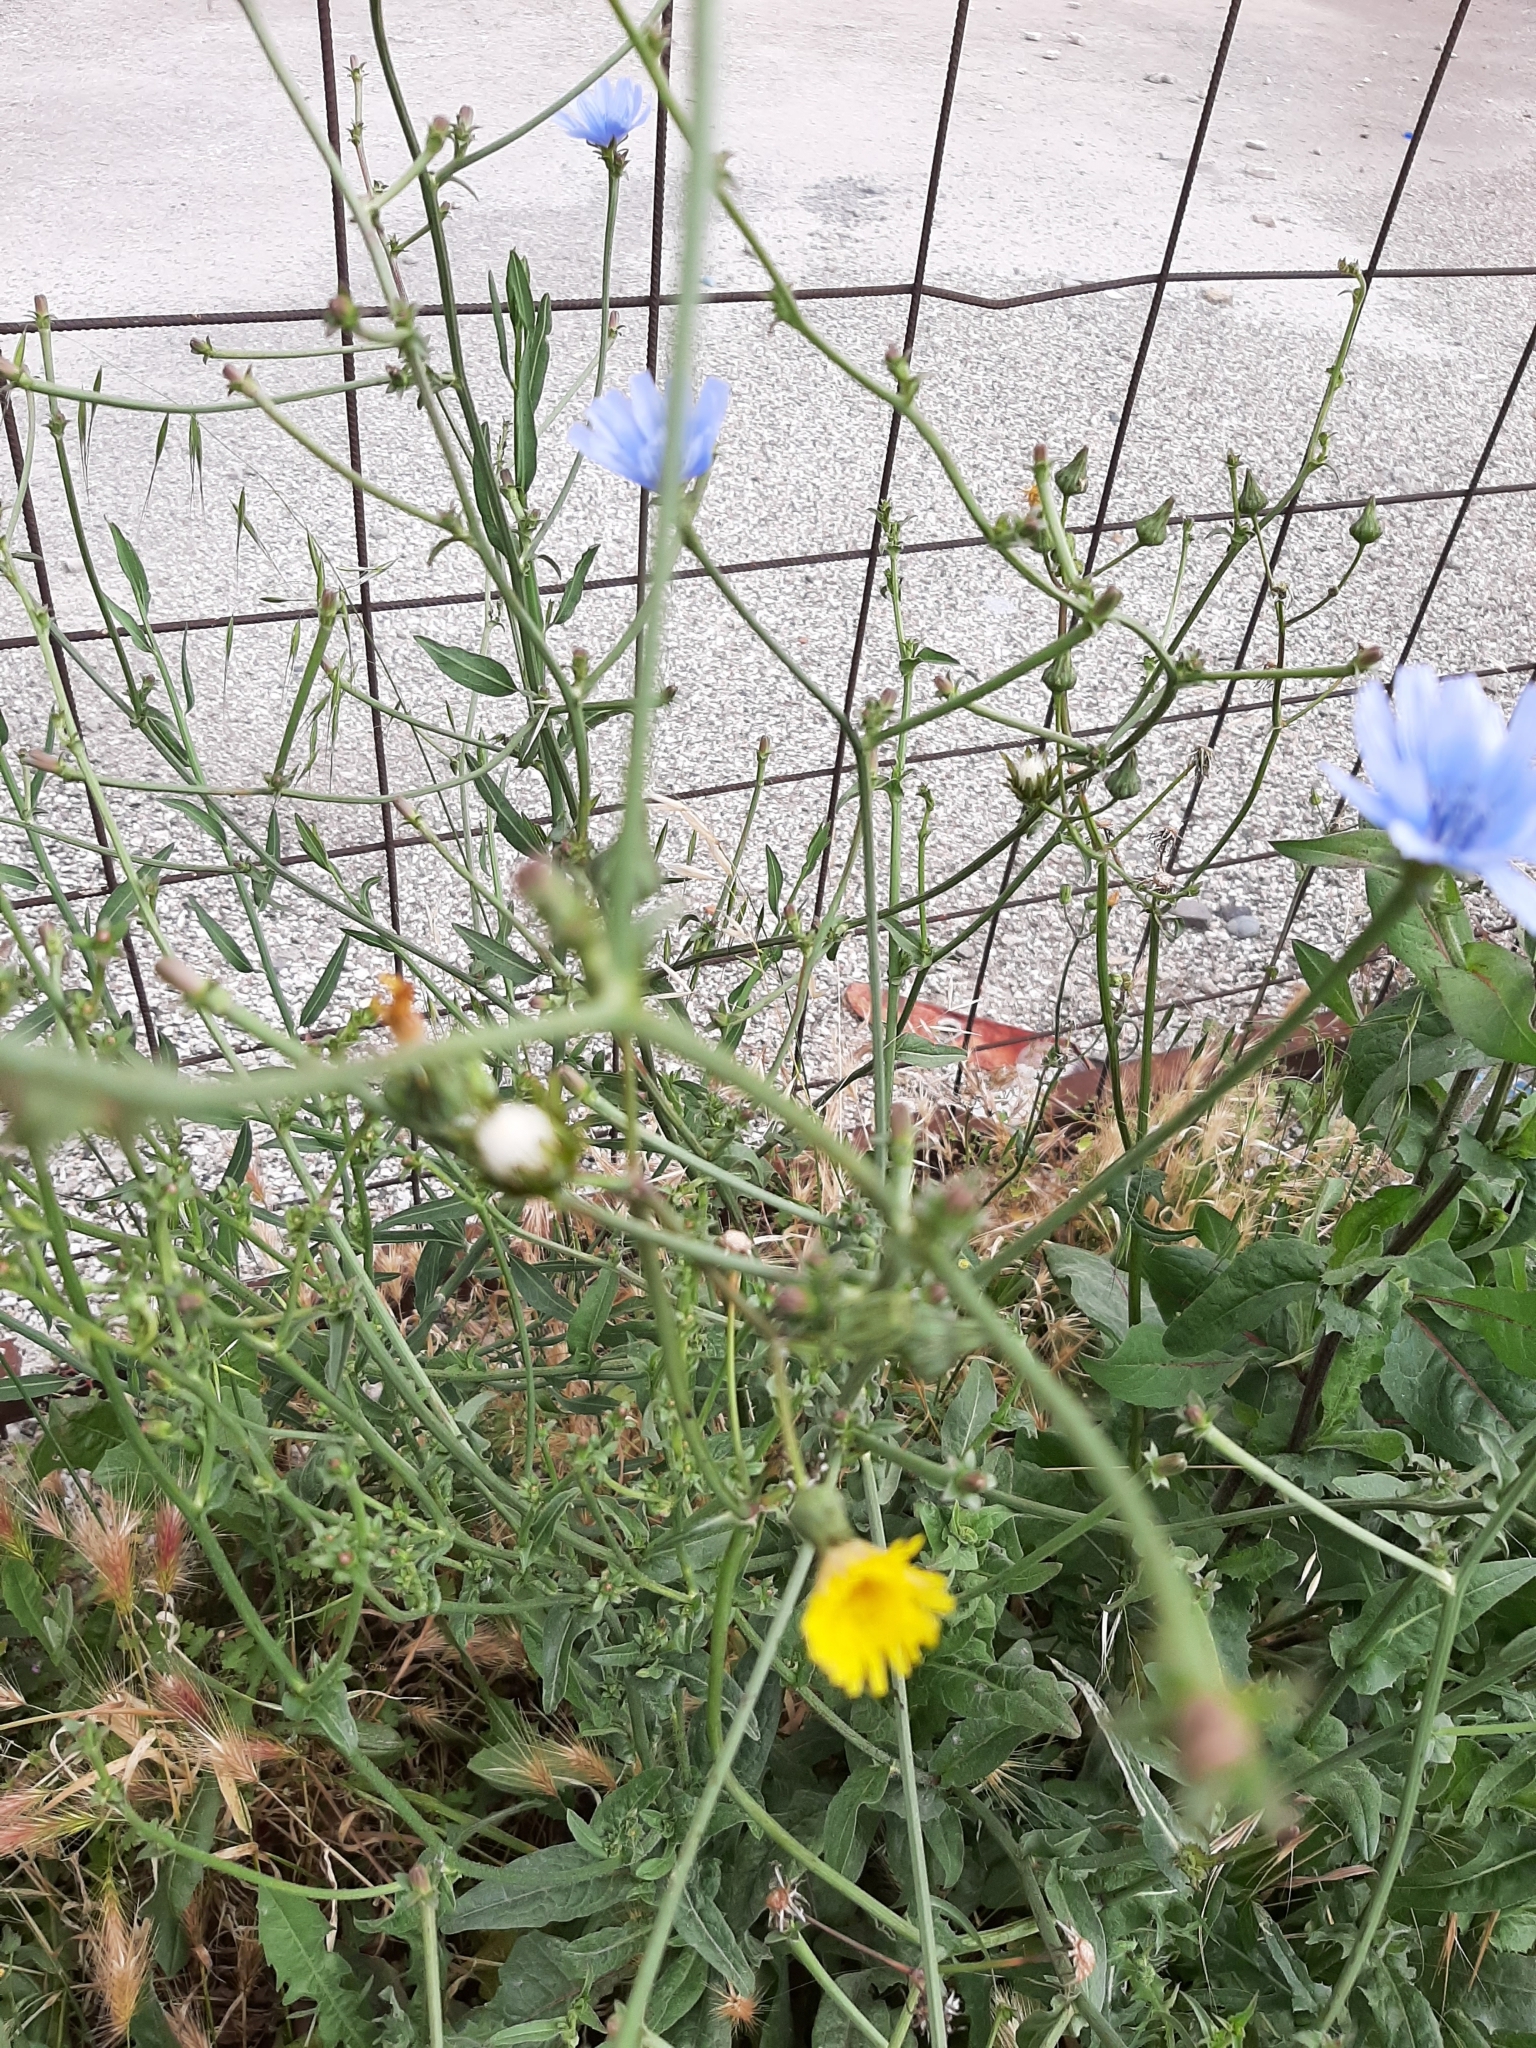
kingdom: Plantae
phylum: Tracheophyta
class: Magnoliopsida
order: Asterales
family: Asteraceae
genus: Cichorium
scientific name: Cichorium intybus
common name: Chicory
